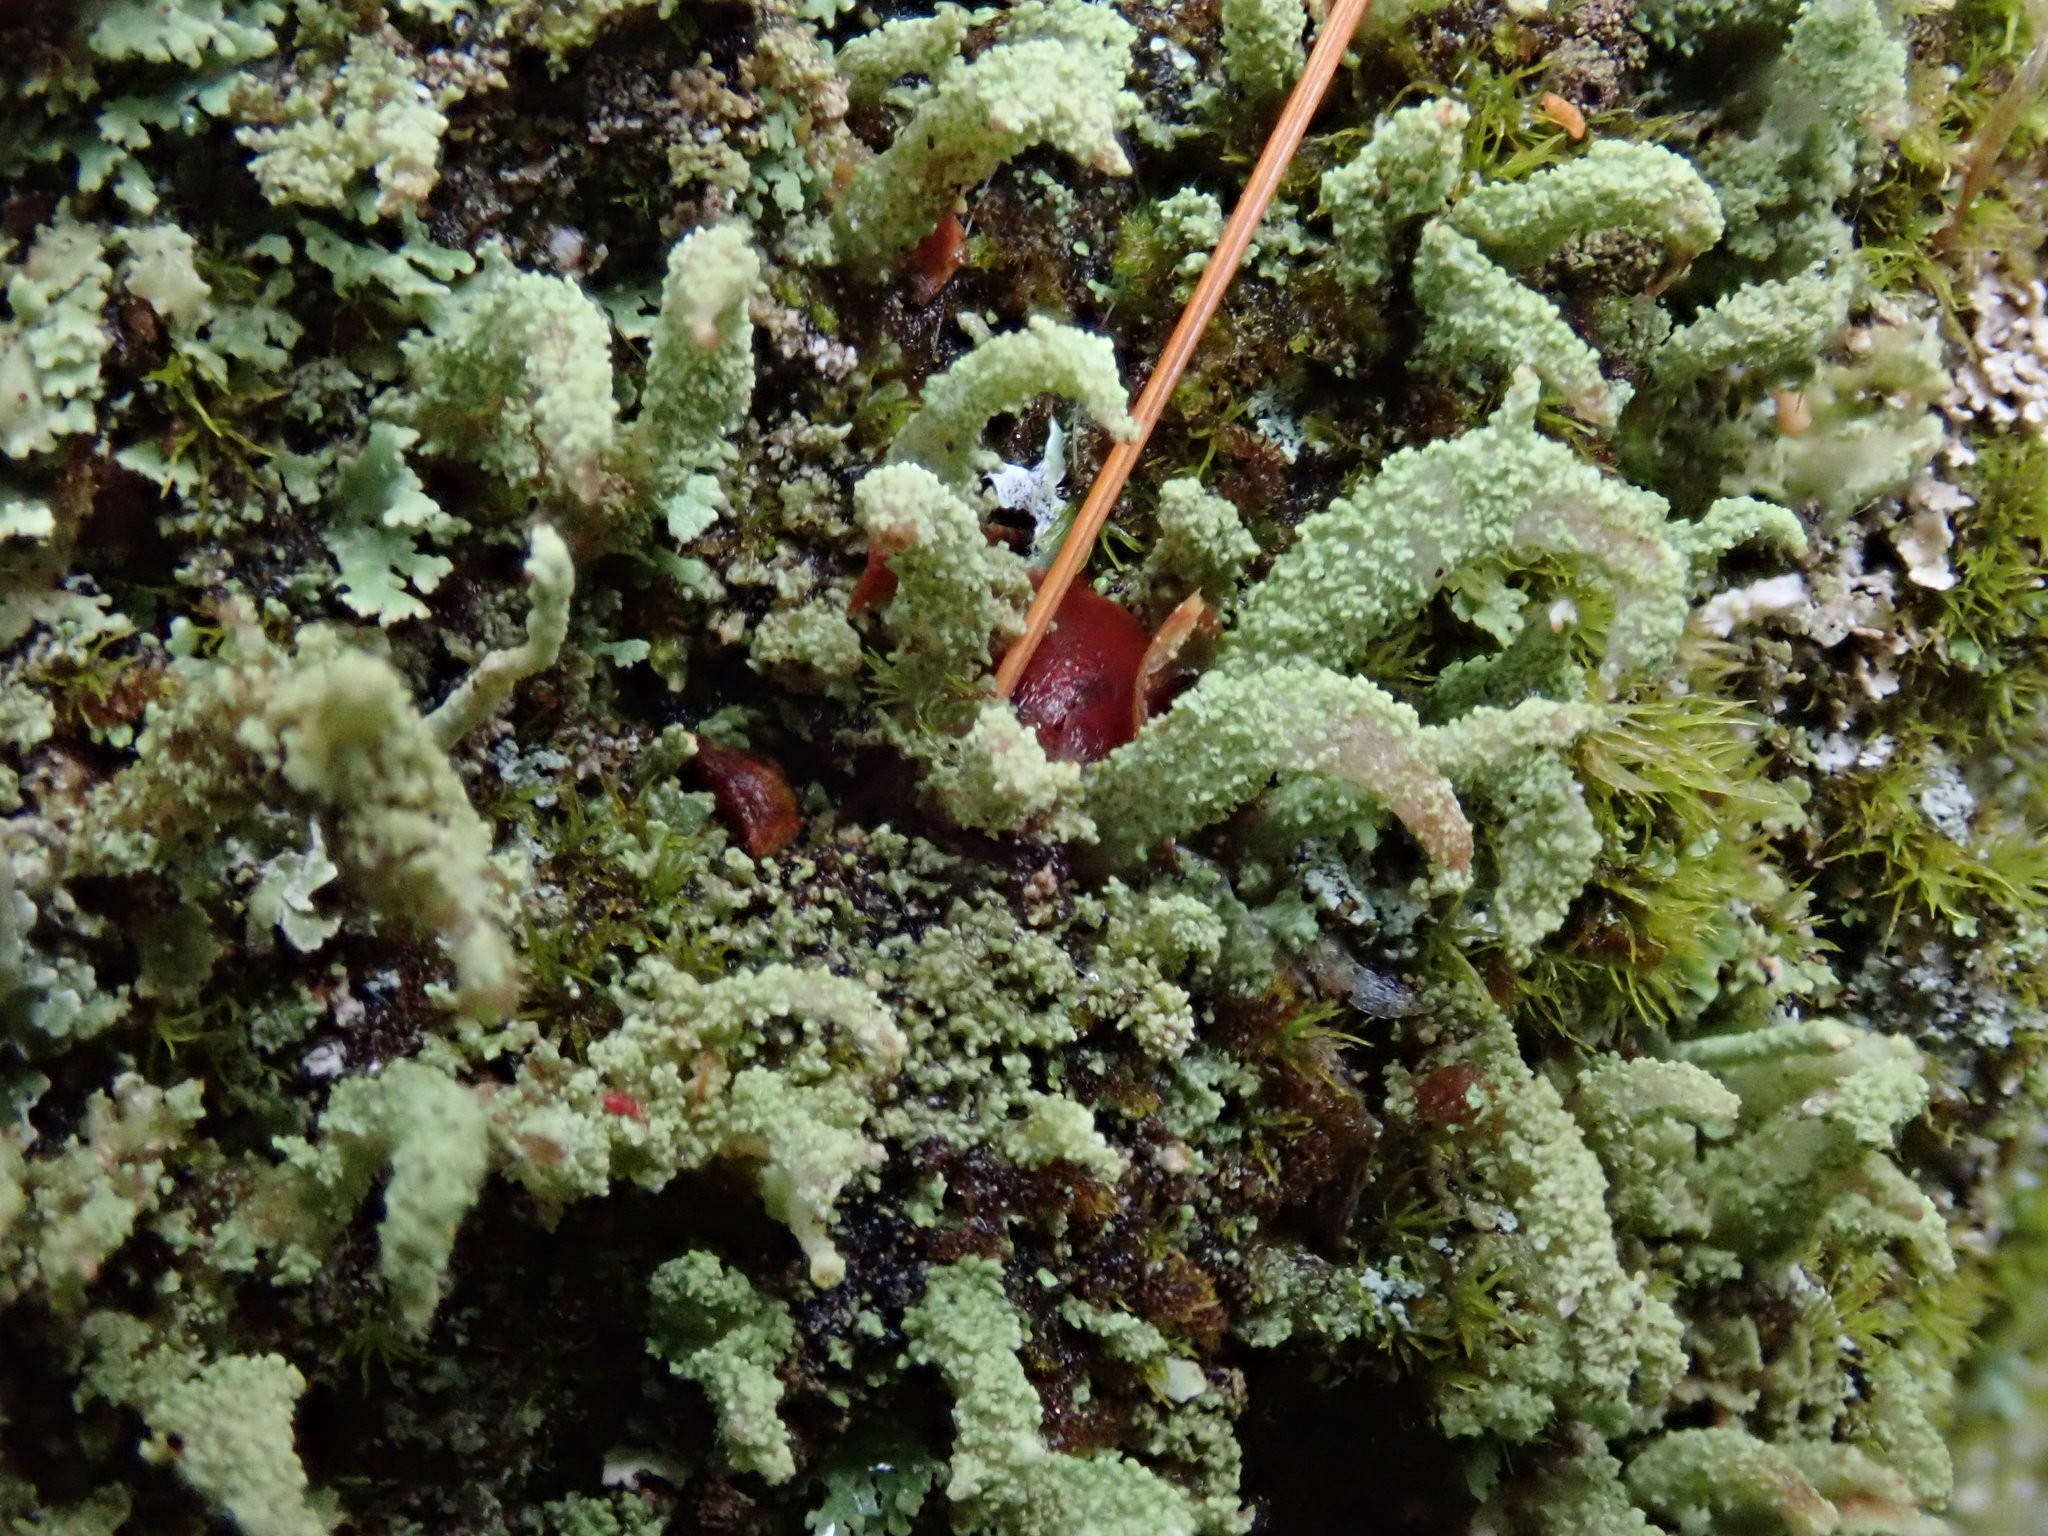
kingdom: Fungi
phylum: Ascomycota
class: Lecanoromycetes
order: Lecanorales
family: Cladoniaceae
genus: Cladonia
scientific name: Cladonia coniocraea
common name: Common powderhorn
